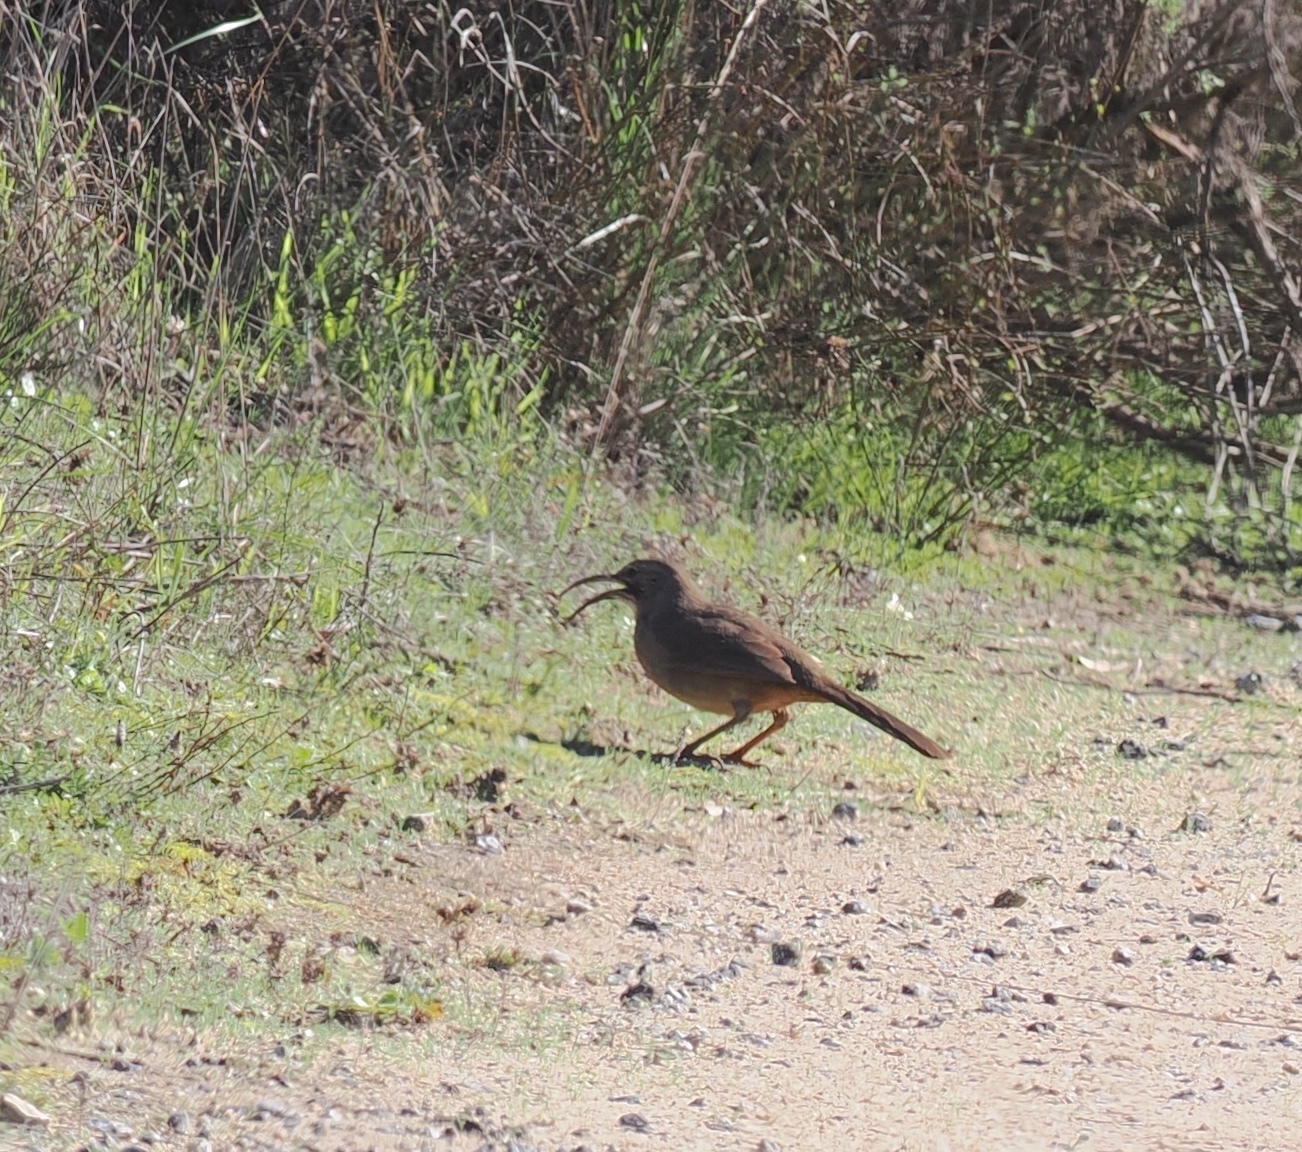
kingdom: Animalia
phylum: Chordata
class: Aves
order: Passeriformes
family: Mimidae
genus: Toxostoma
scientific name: Toxostoma redivivum
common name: California thrasher
